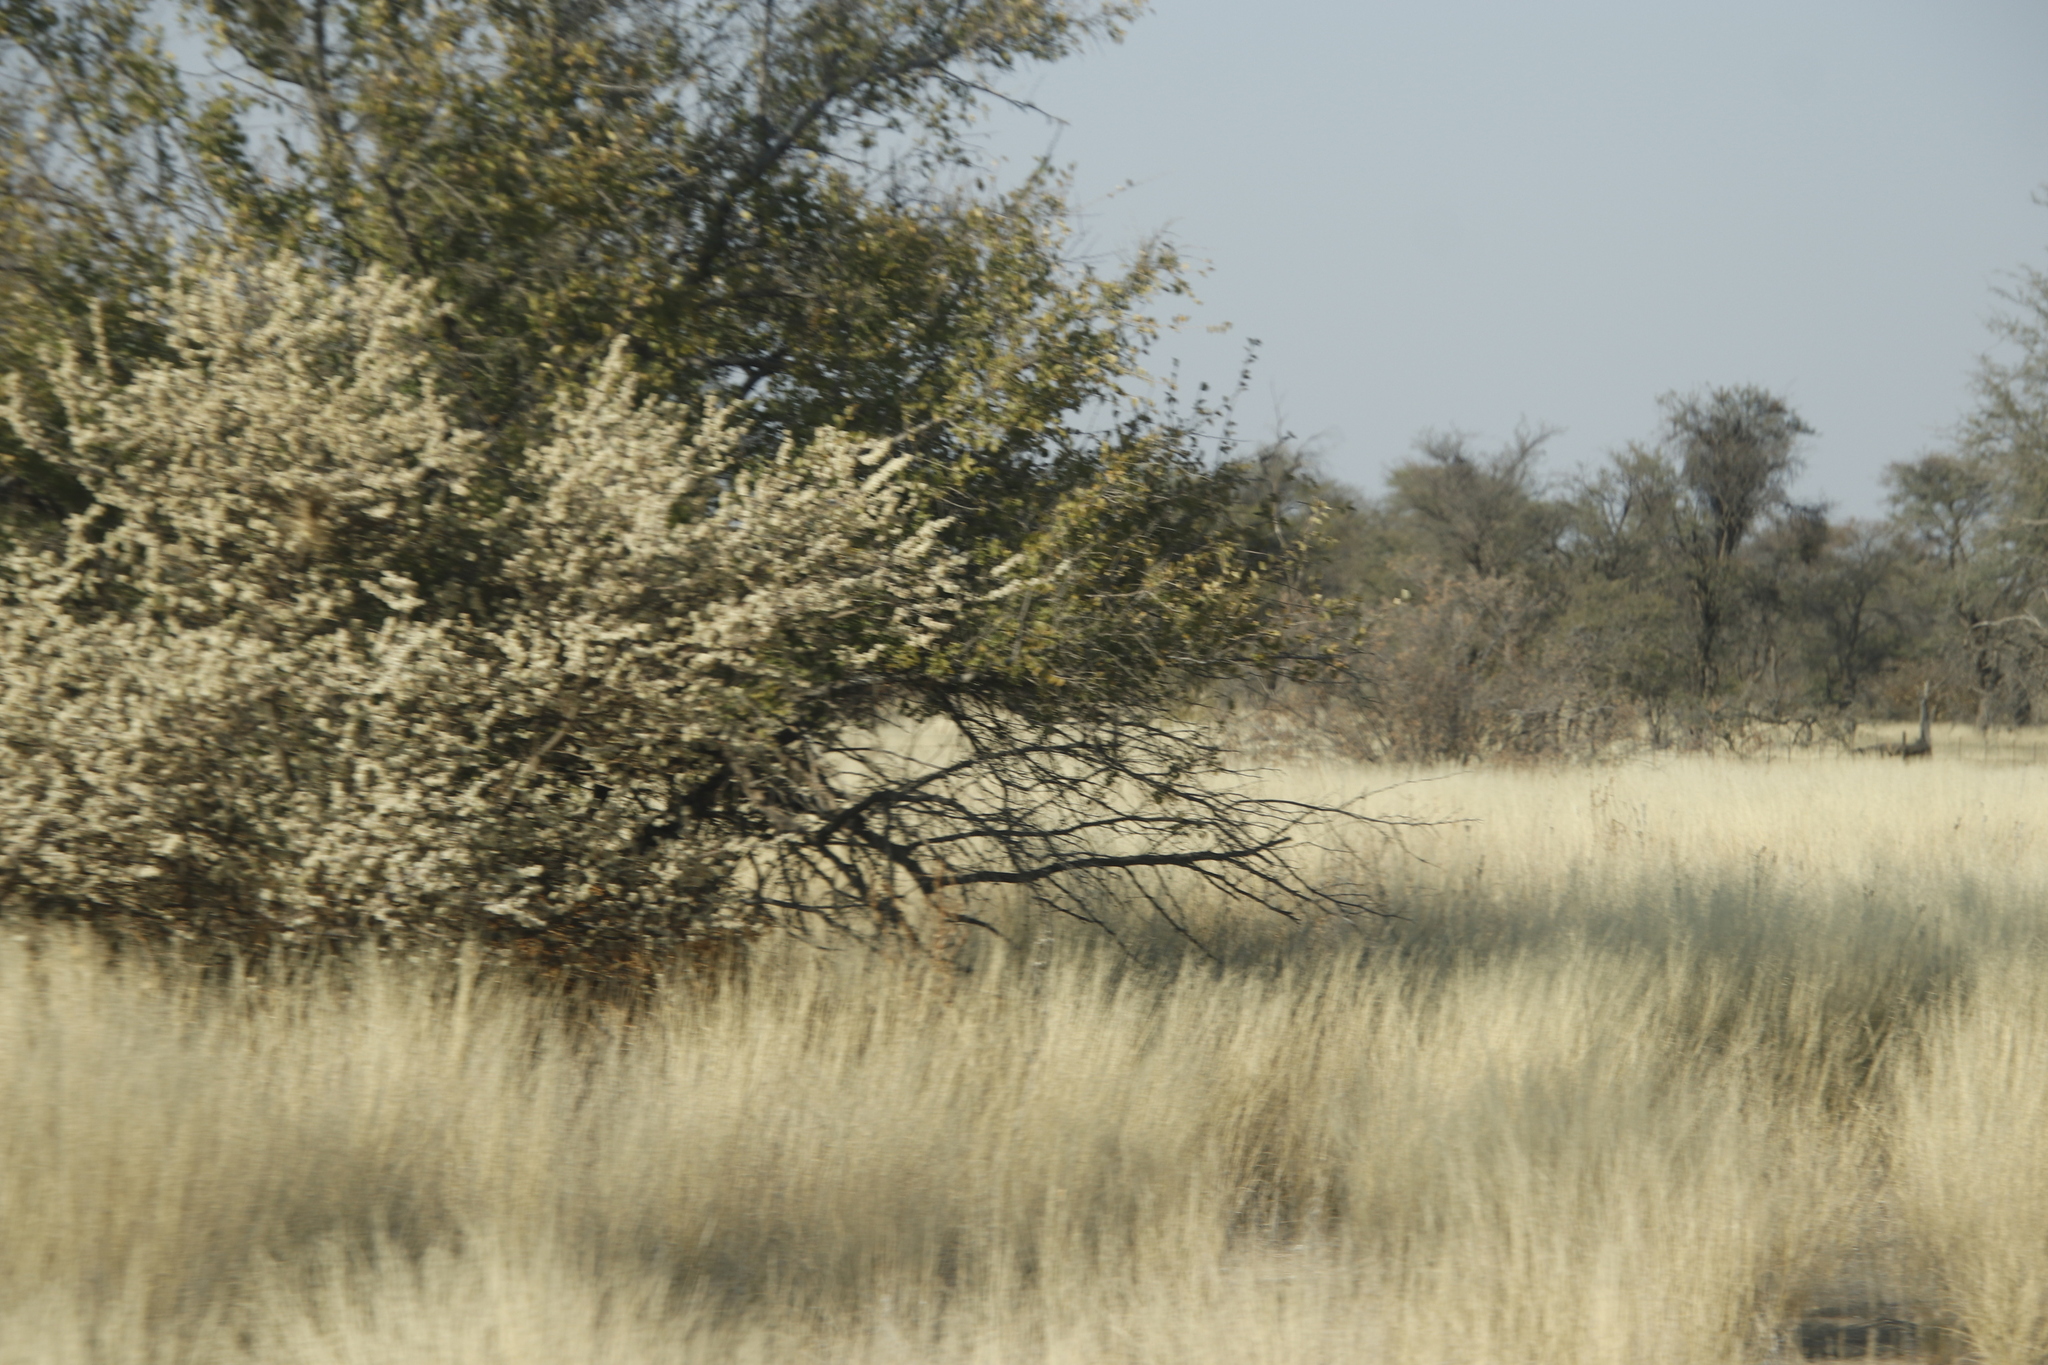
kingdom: Plantae
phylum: Tracheophyta
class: Magnoliopsida
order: Fabales
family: Fabaceae
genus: Senegalia
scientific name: Senegalia mellifera
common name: Hookthorn
